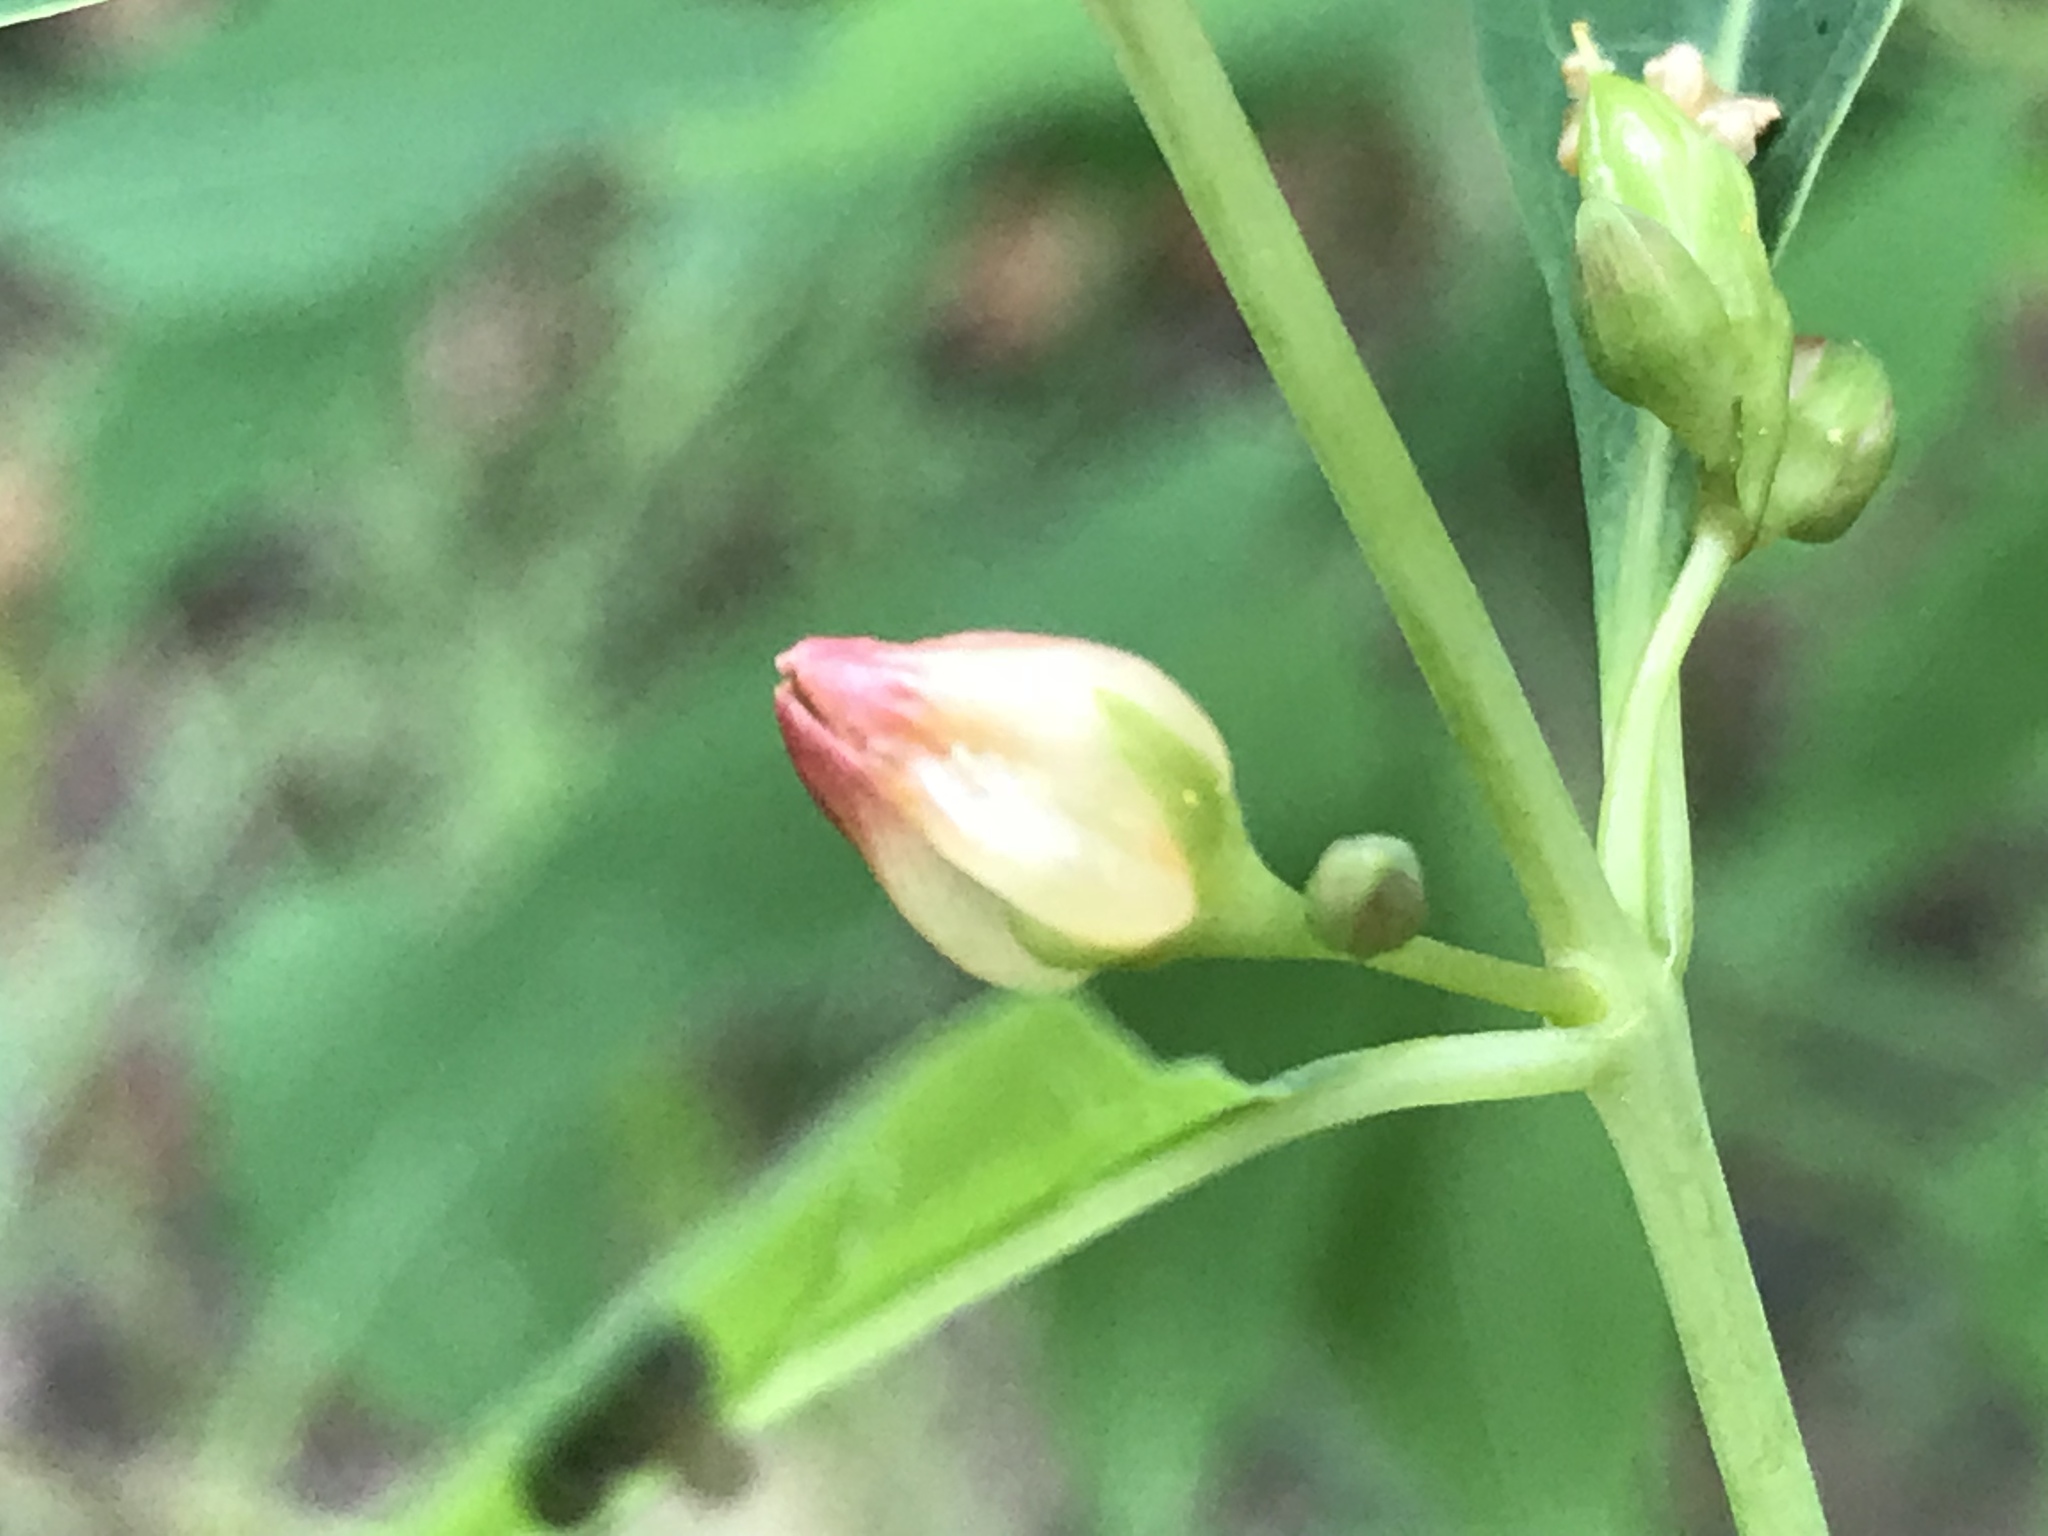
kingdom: Plantae
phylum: Tracheophyta
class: Magnoliopsida
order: Malpighiales
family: Hypericaceae
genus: Triadenum
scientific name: Triadenum walteri
